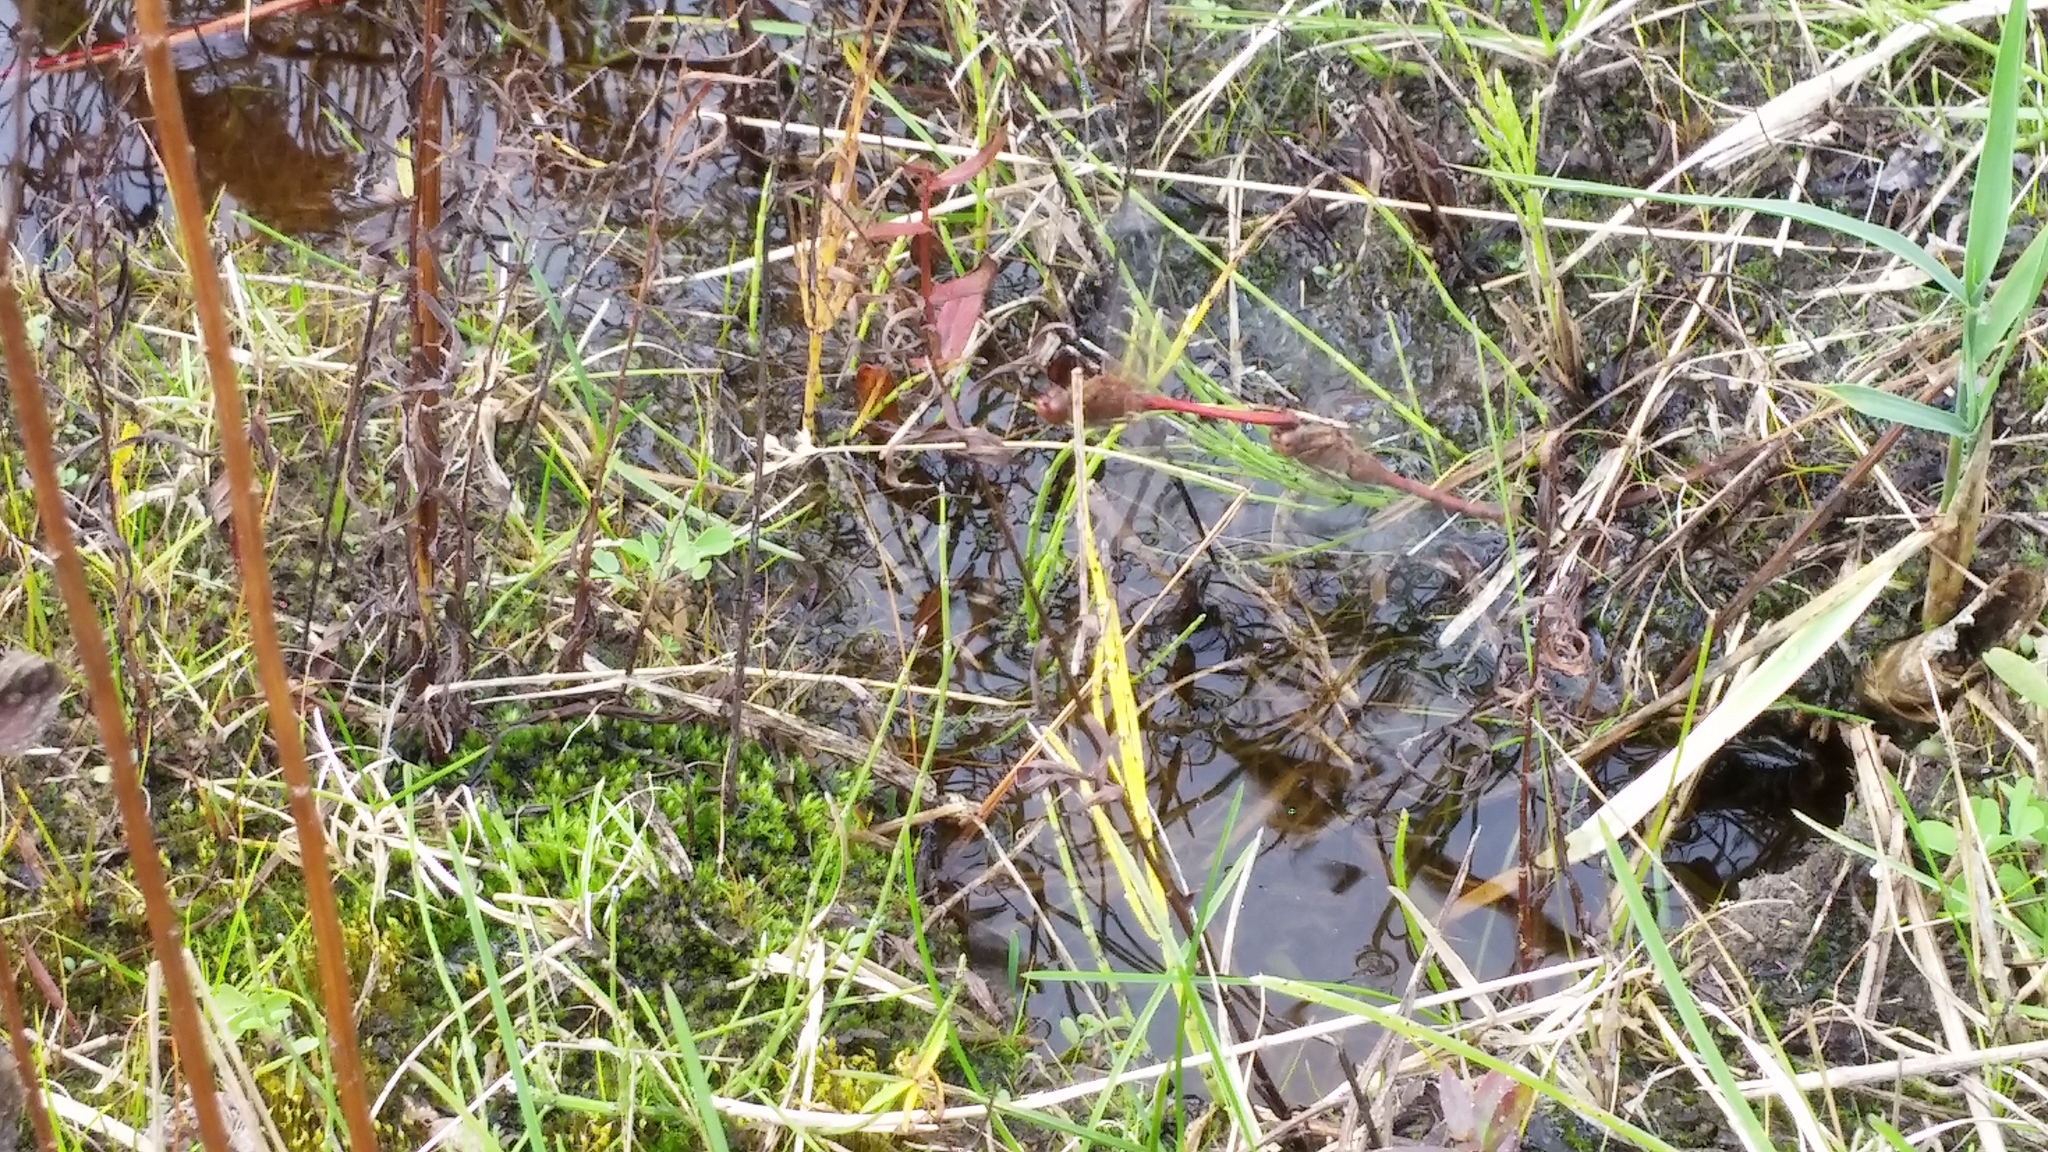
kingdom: Animalia
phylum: Arthropoda
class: Insecta
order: Odonata
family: Libellulidae
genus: Sympetrum
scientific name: Sympetrum vicinum
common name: Autumn meadowhawk
